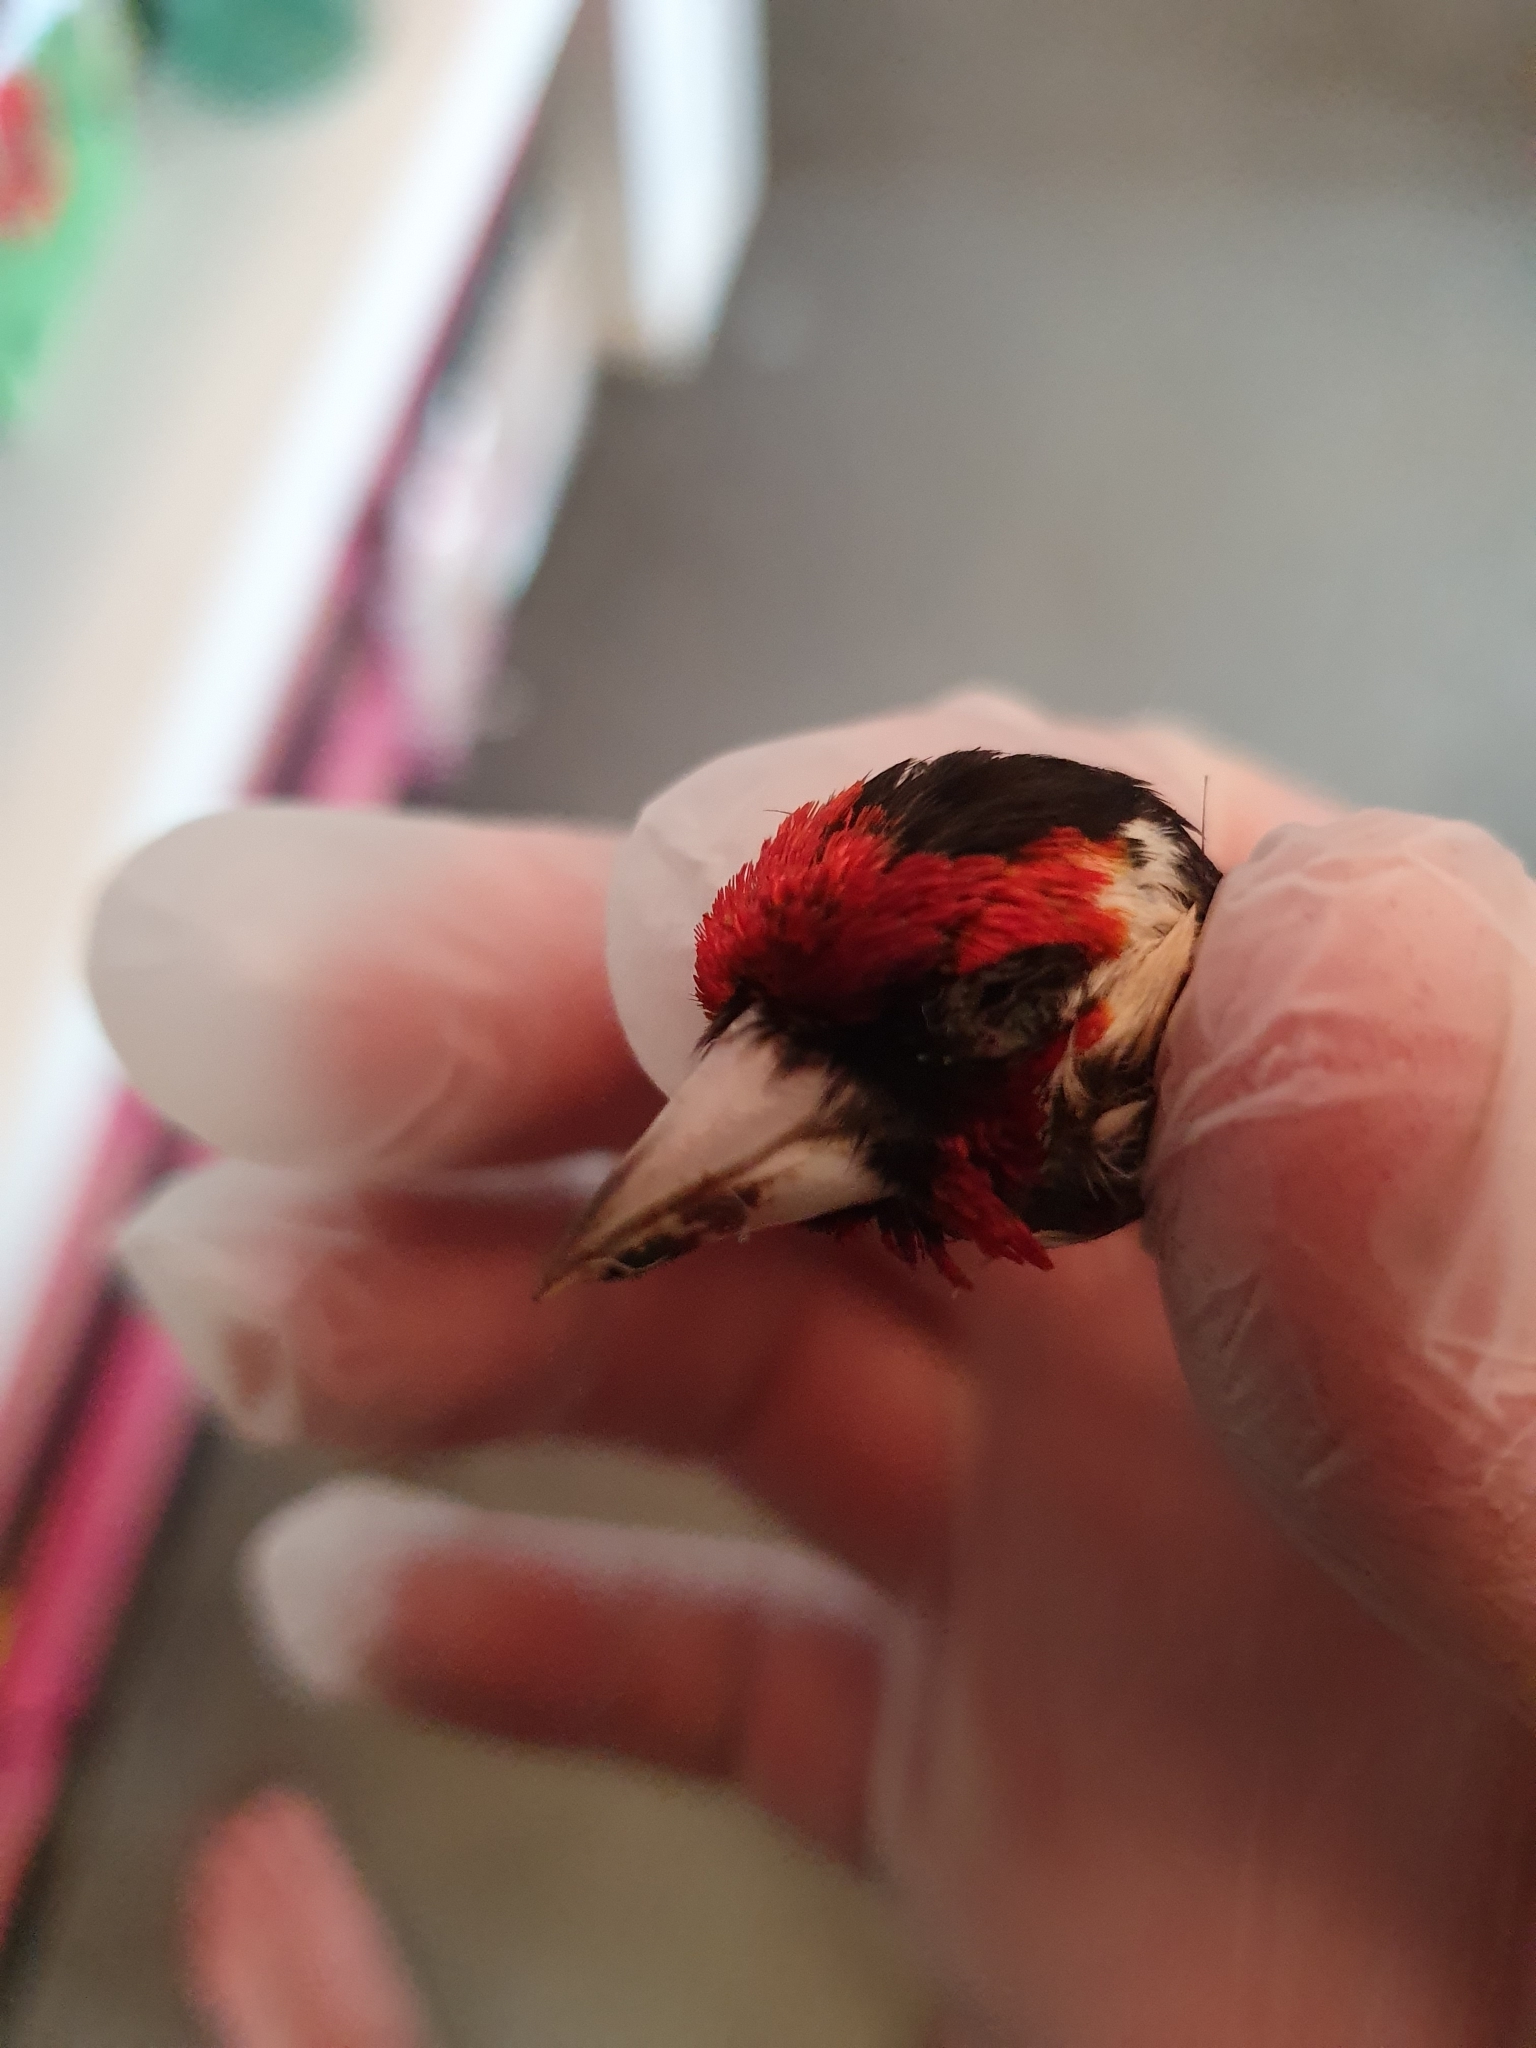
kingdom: Animalia
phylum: Chordata
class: Aves
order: Passeriformes
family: Fringillidae
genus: Carduelis
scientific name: Carduelis carduelis
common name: European goldfinch
